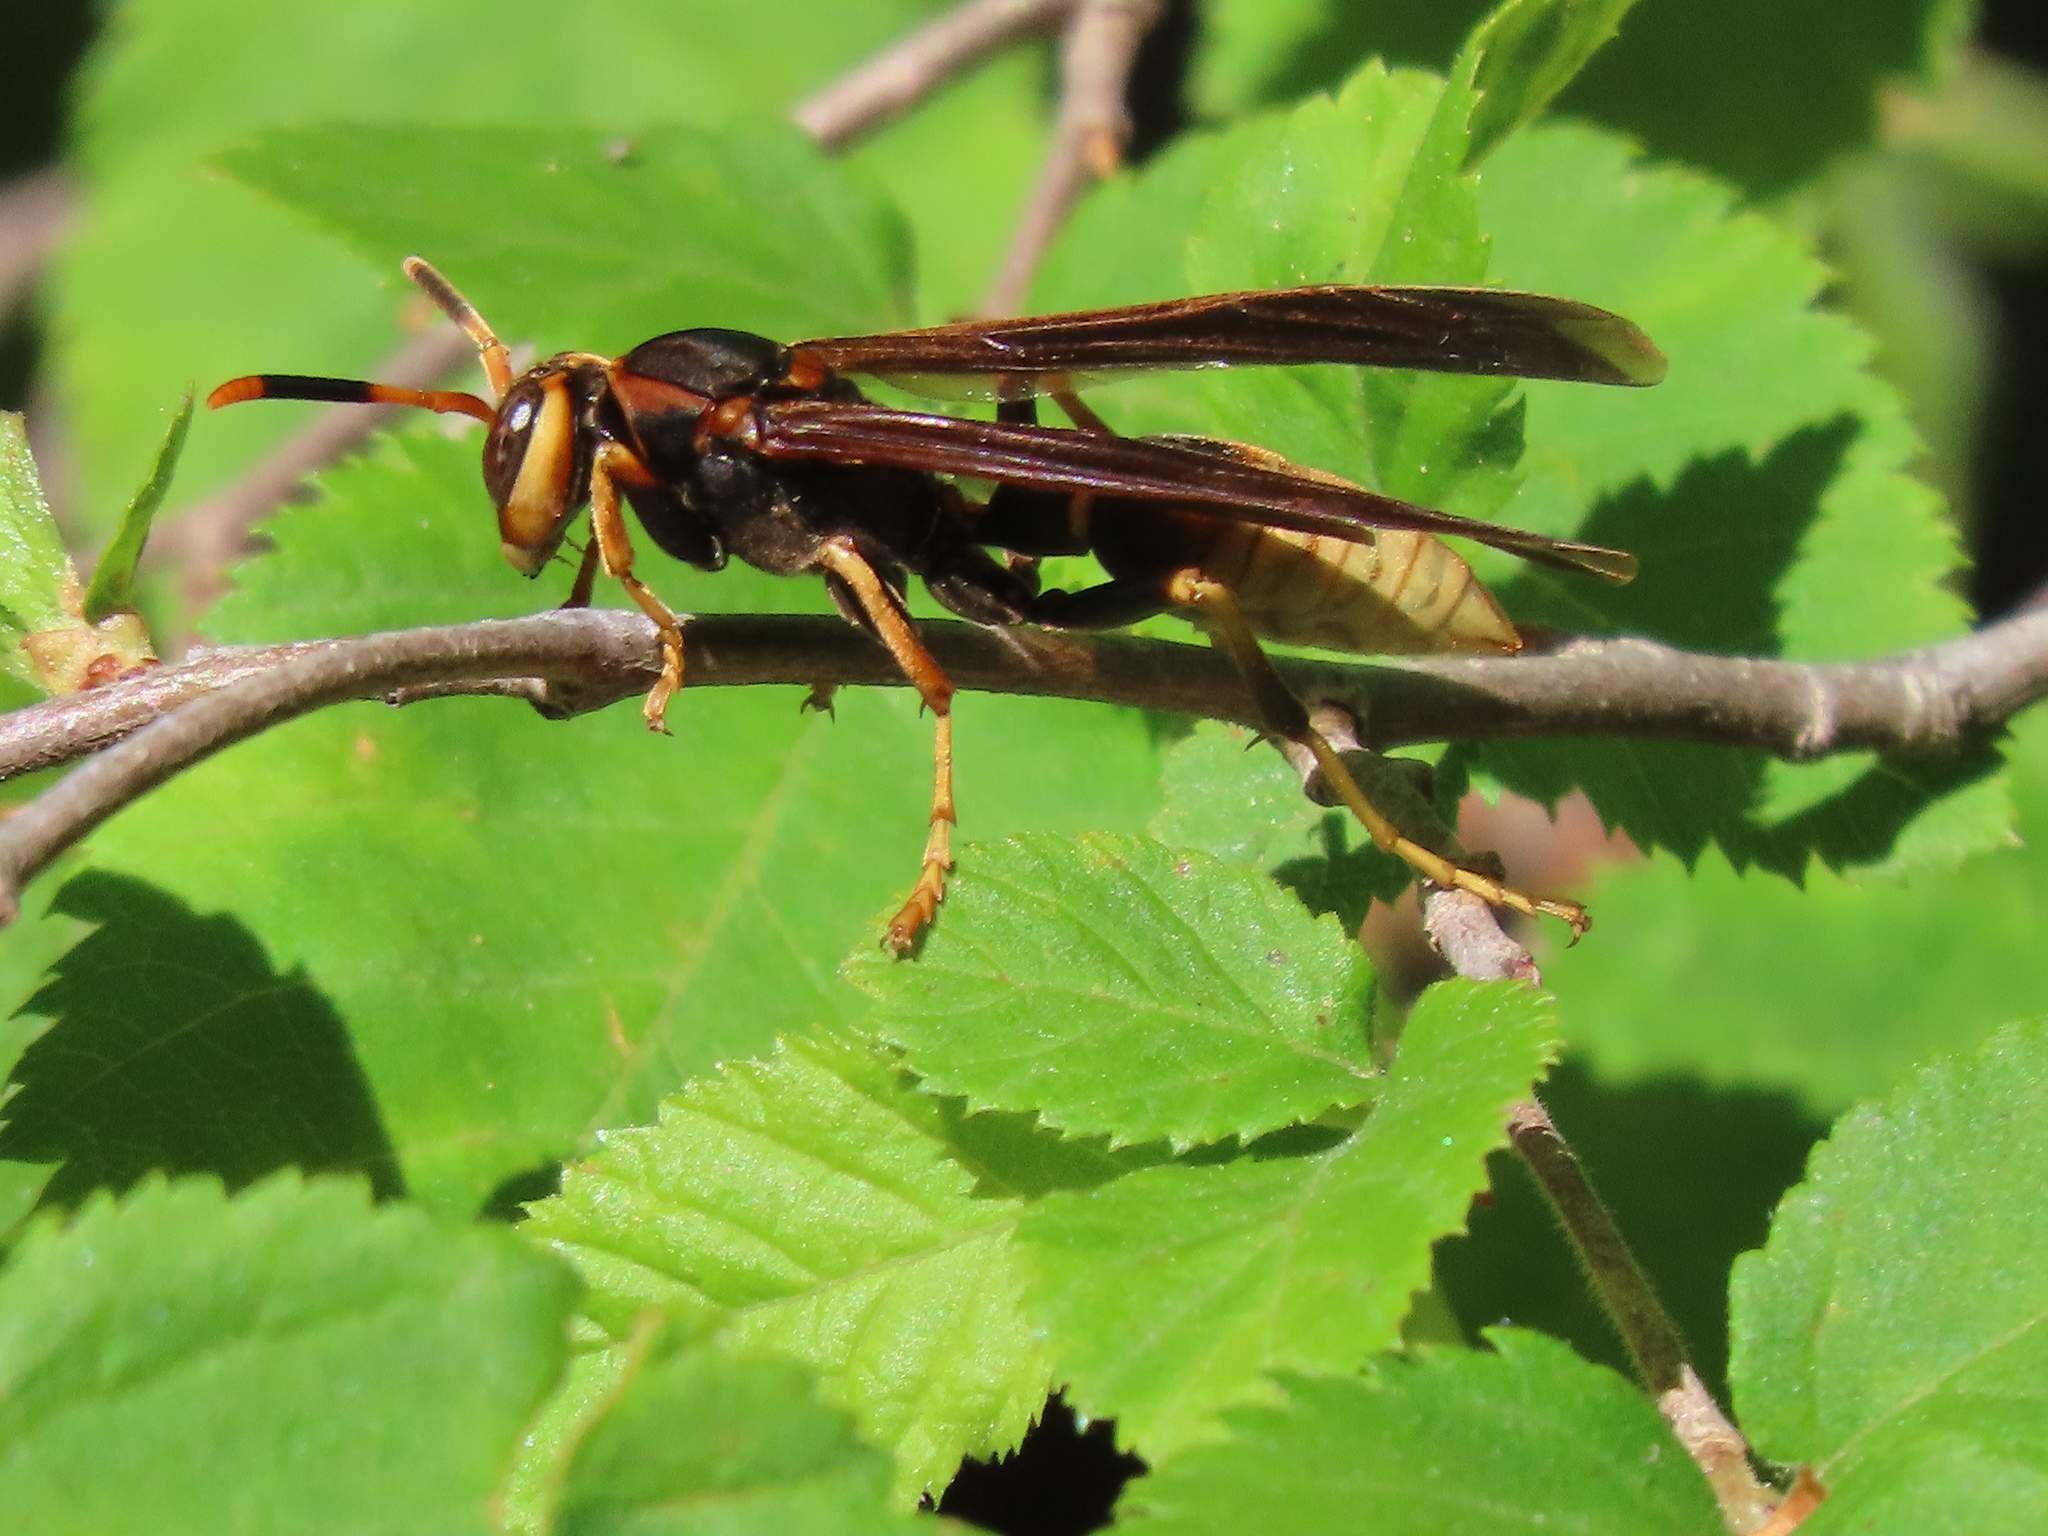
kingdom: Animalia
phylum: Arthropoda
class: Insecta
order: Hymenoptera
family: Eumenidae
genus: Polistes
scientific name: Polistes comanchus
